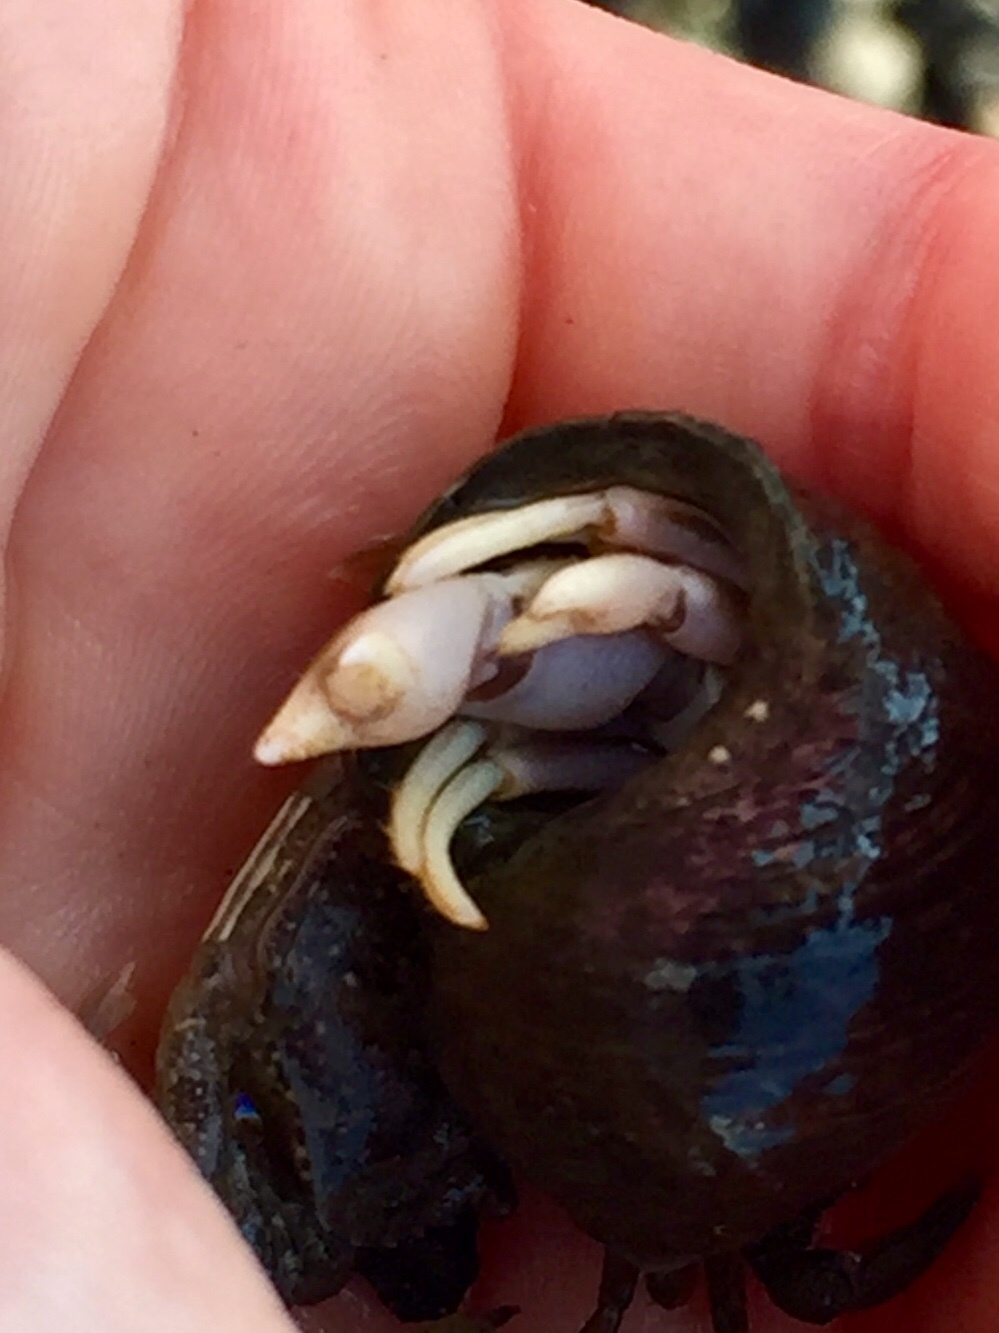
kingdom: Animalia
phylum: Arthropoda
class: Malacostraca
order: Decapoda
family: Paguridae
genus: Pagurus
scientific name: Pagurus longicarpus
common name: Long-armed hermit crab
